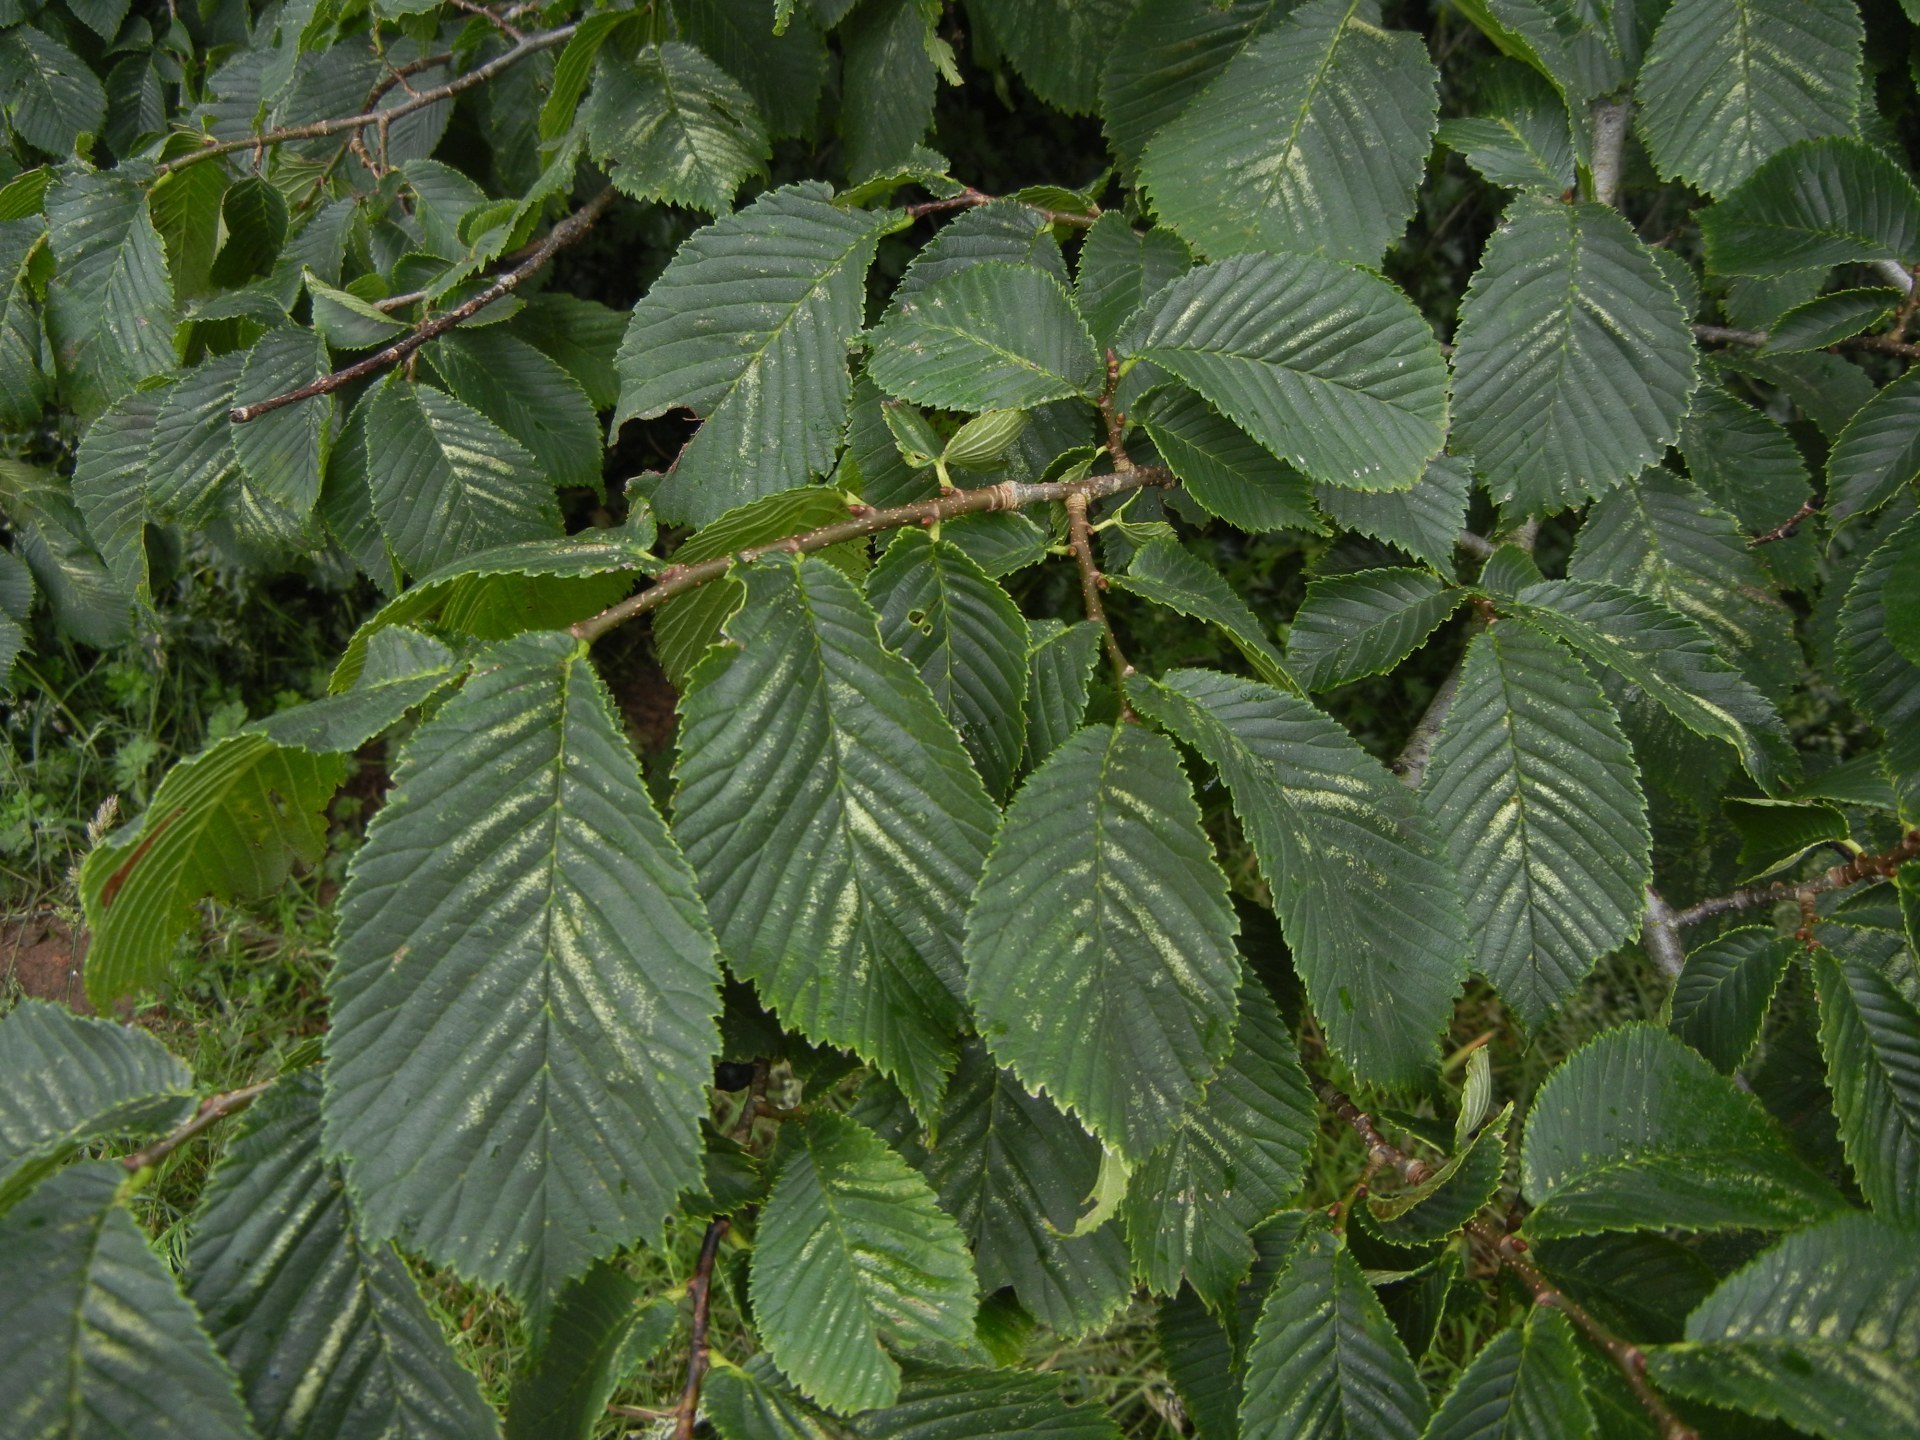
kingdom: Plantae
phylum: Tracheophyta
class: Magnoliopsida
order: Rosales
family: Ulmaceae
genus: Ulmus
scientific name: Ulmus glabra
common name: Wych elm
